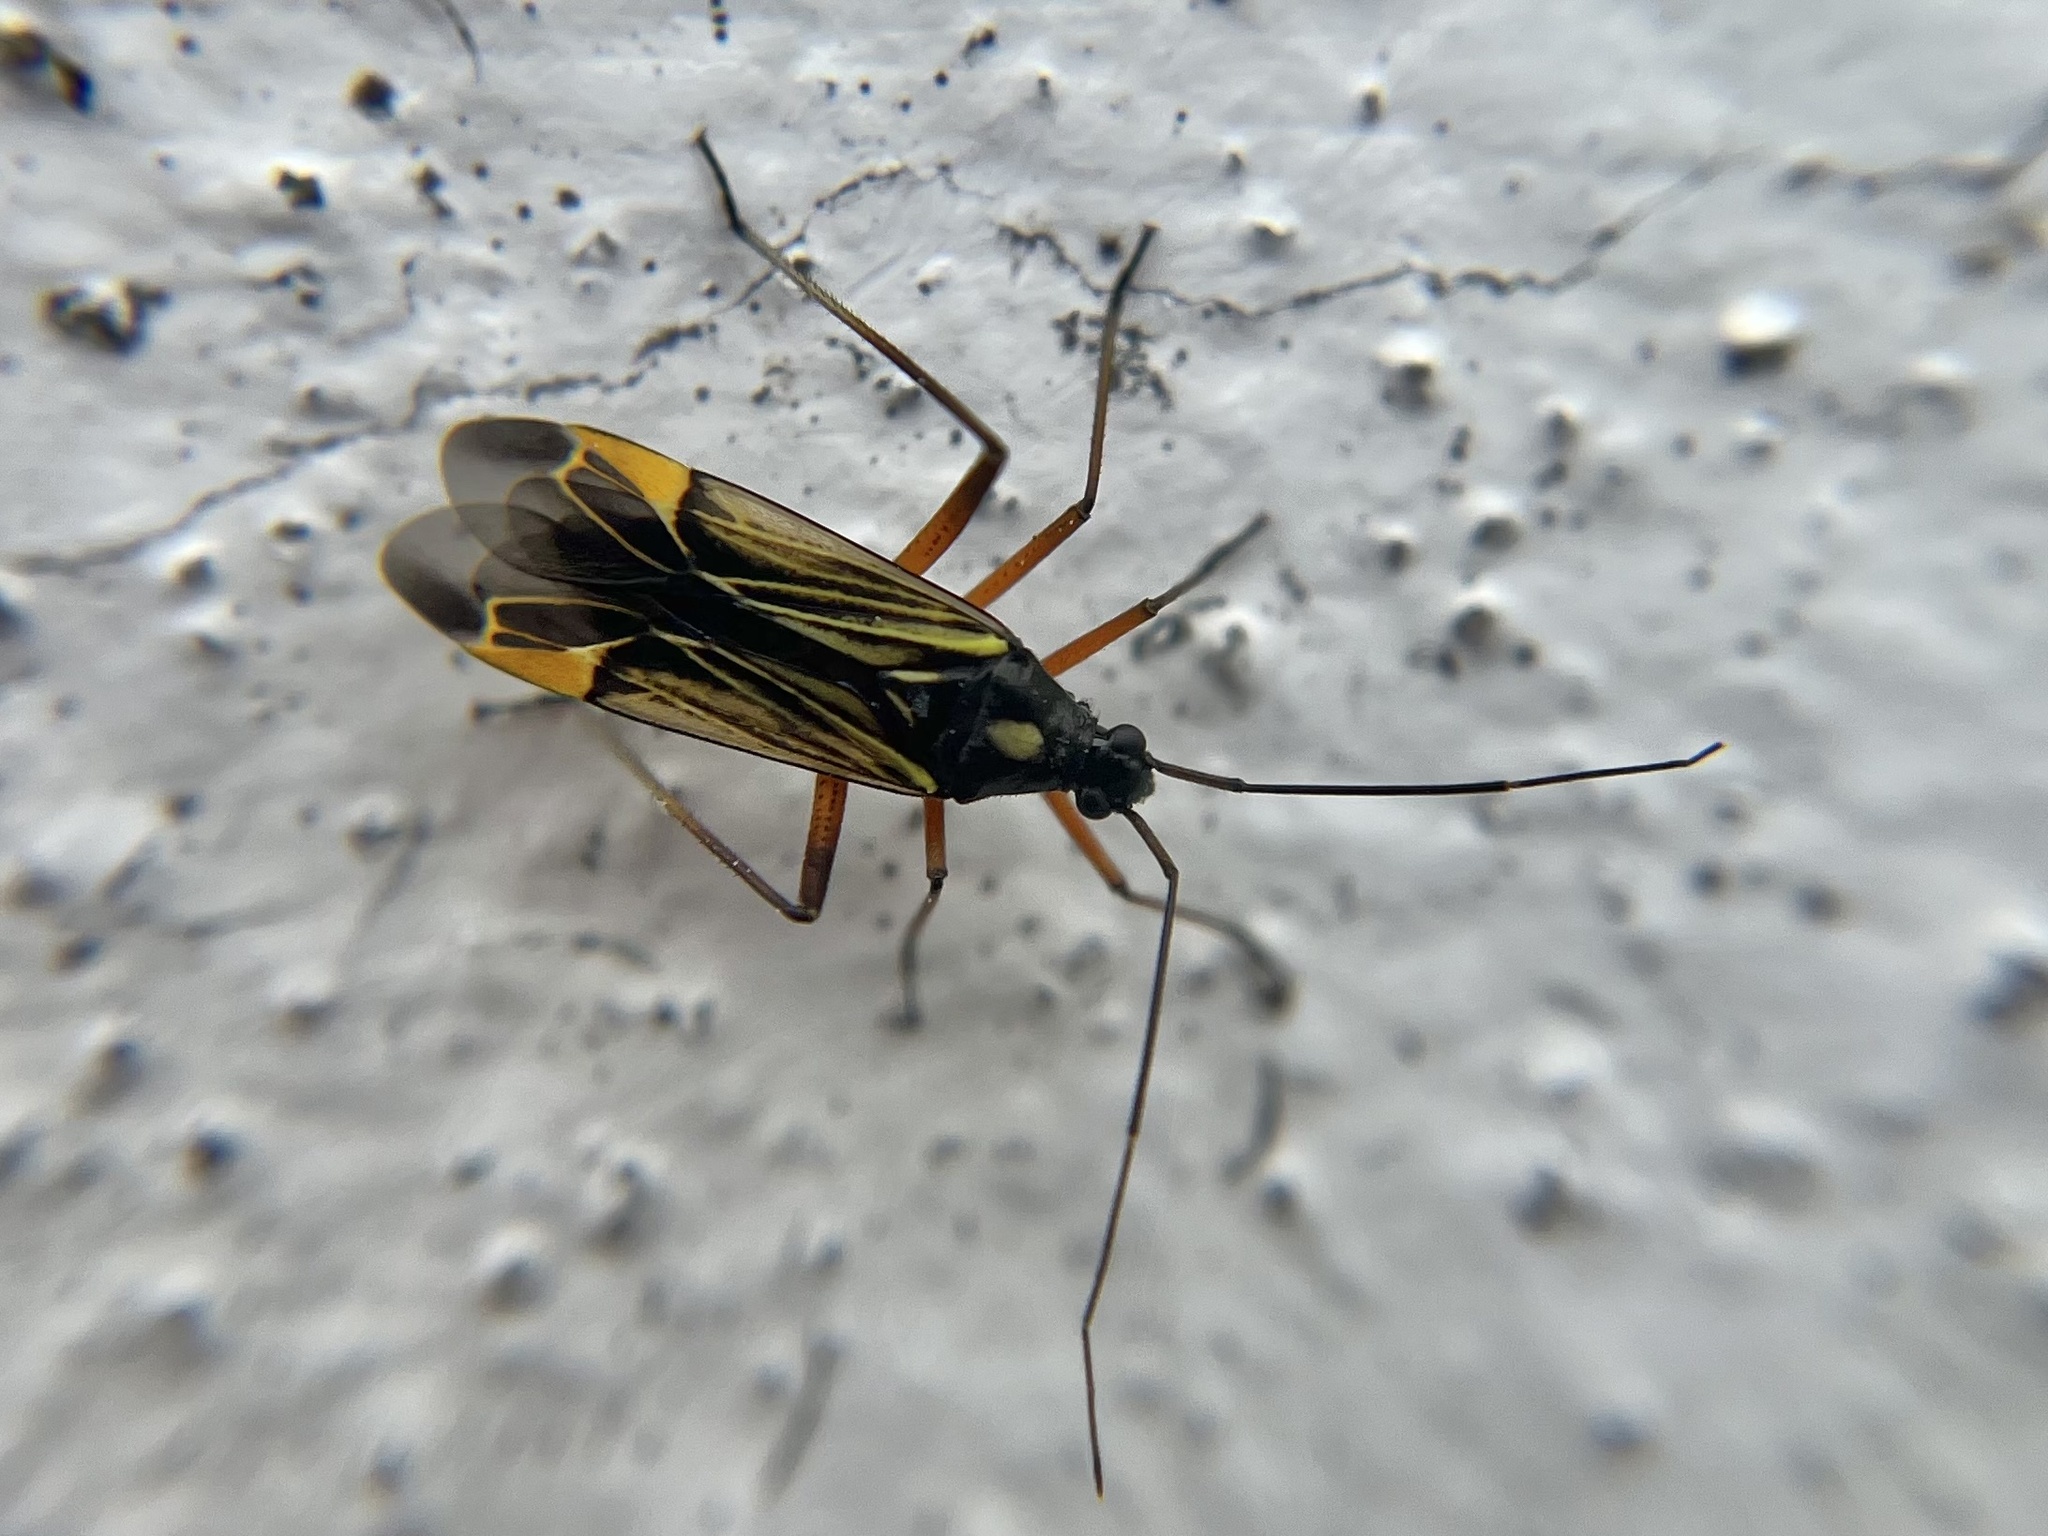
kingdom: Animalia
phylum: Arthropoda
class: Insecta
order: Hemiptera
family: Miridae
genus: Miris
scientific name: Miris striatus
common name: Fine streaked bugkin
